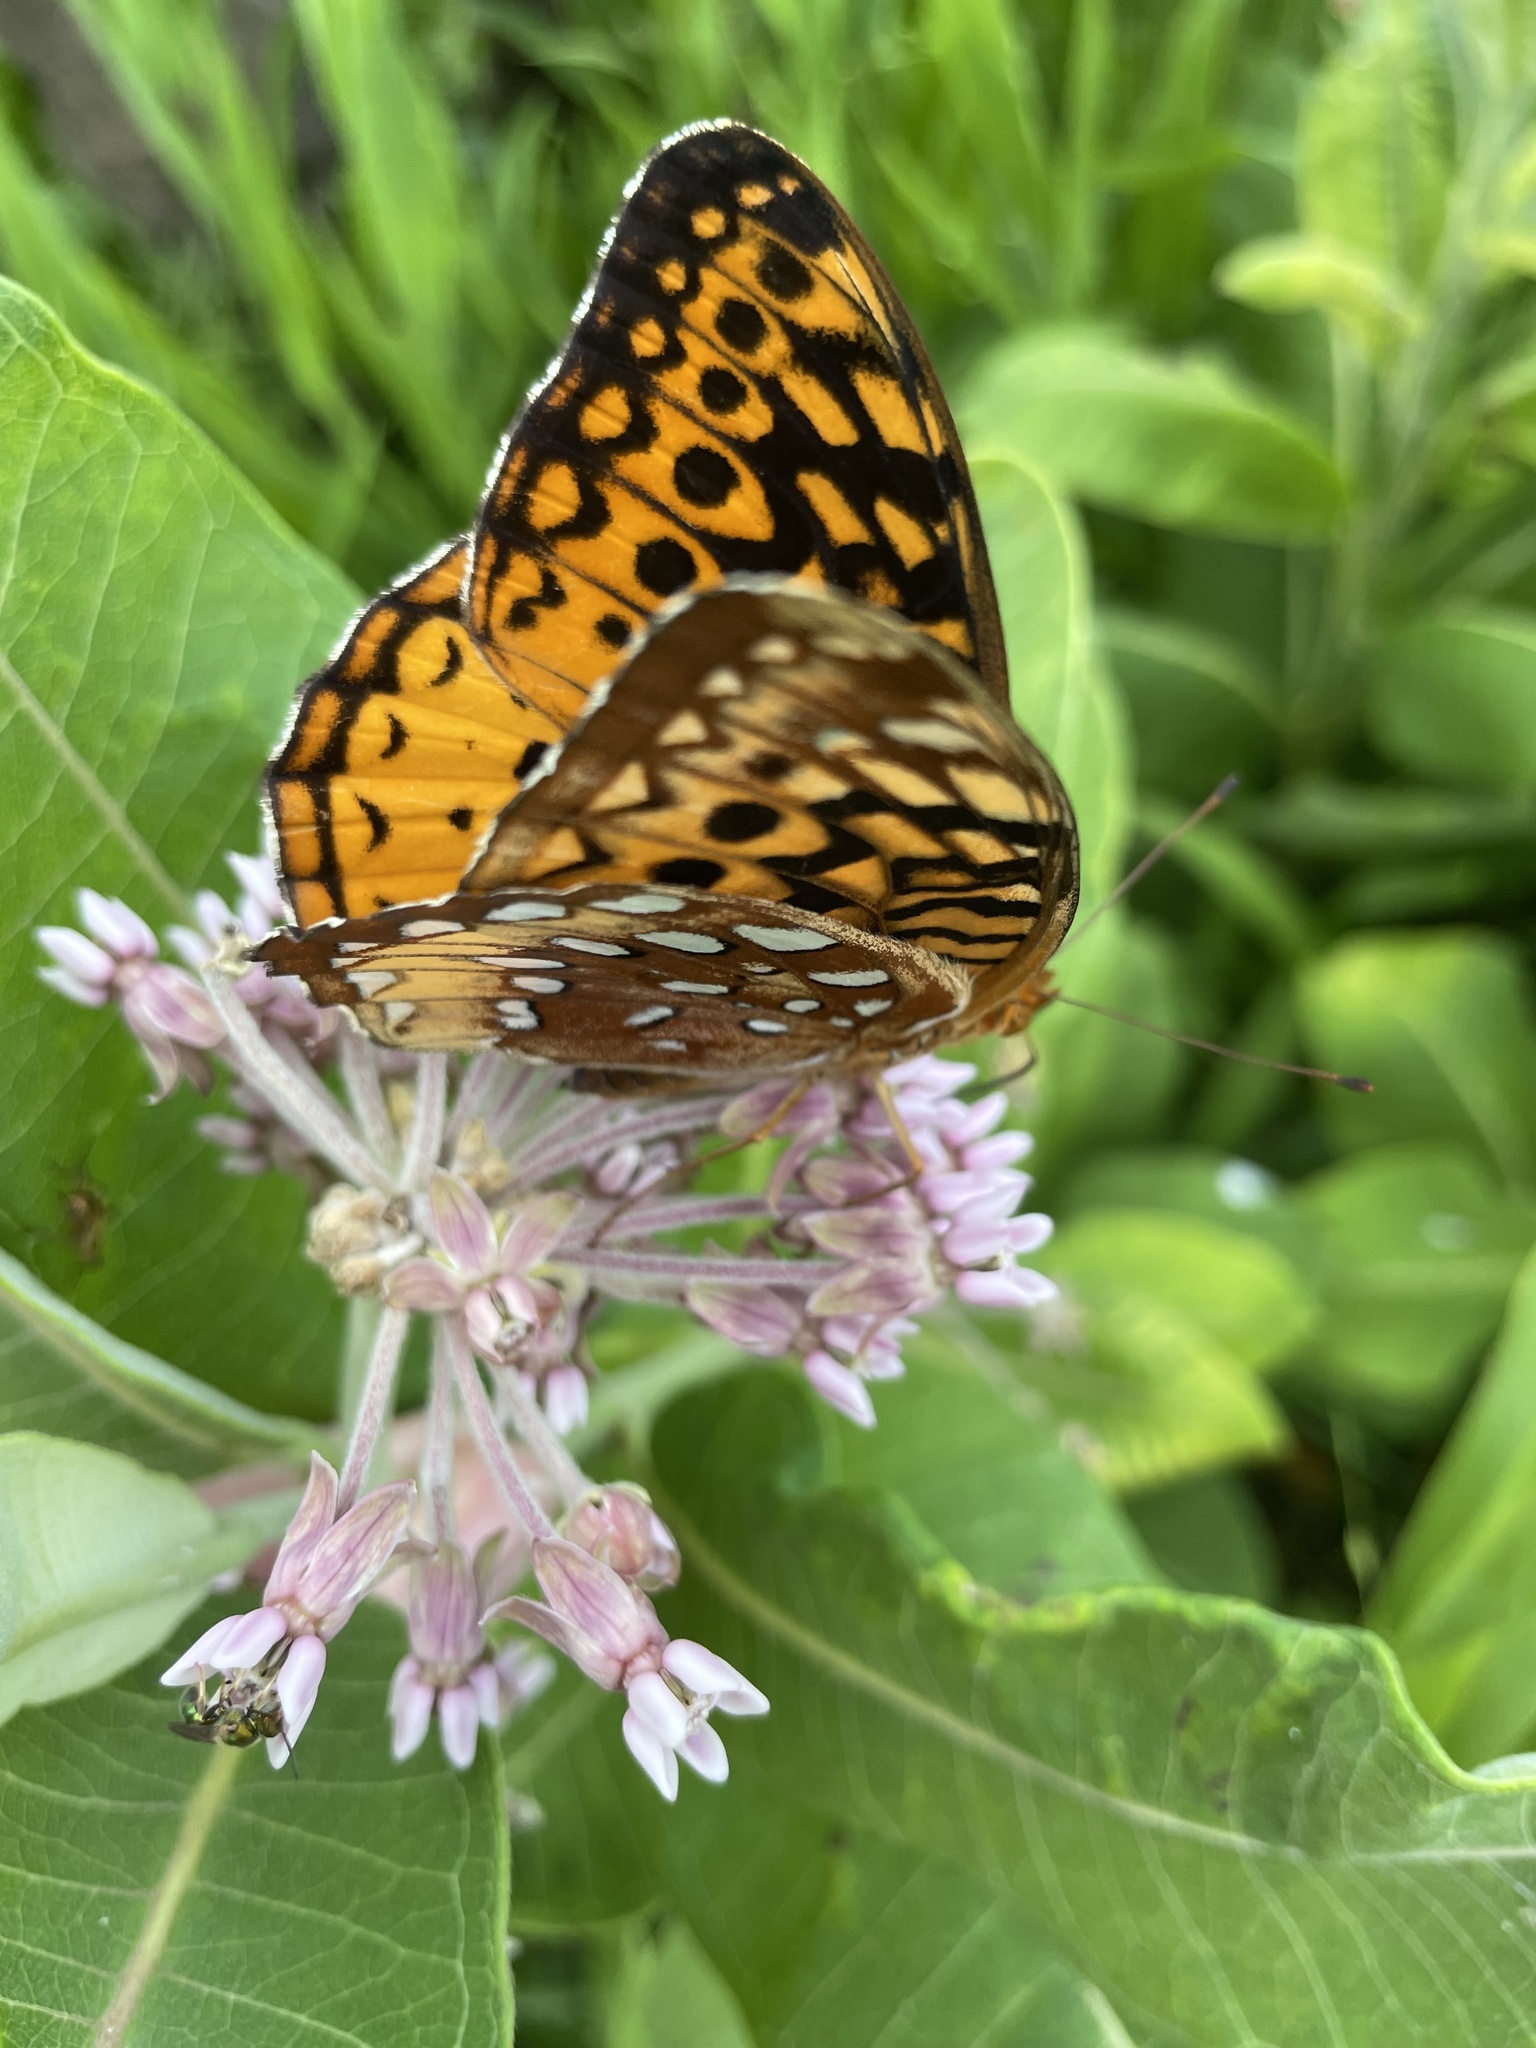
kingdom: Animalia
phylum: Arthropoda
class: Insecta
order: Lepidoptera
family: Nymphalidae
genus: Speyeria
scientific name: Speyeria cybele
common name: Great spangled fritillary
